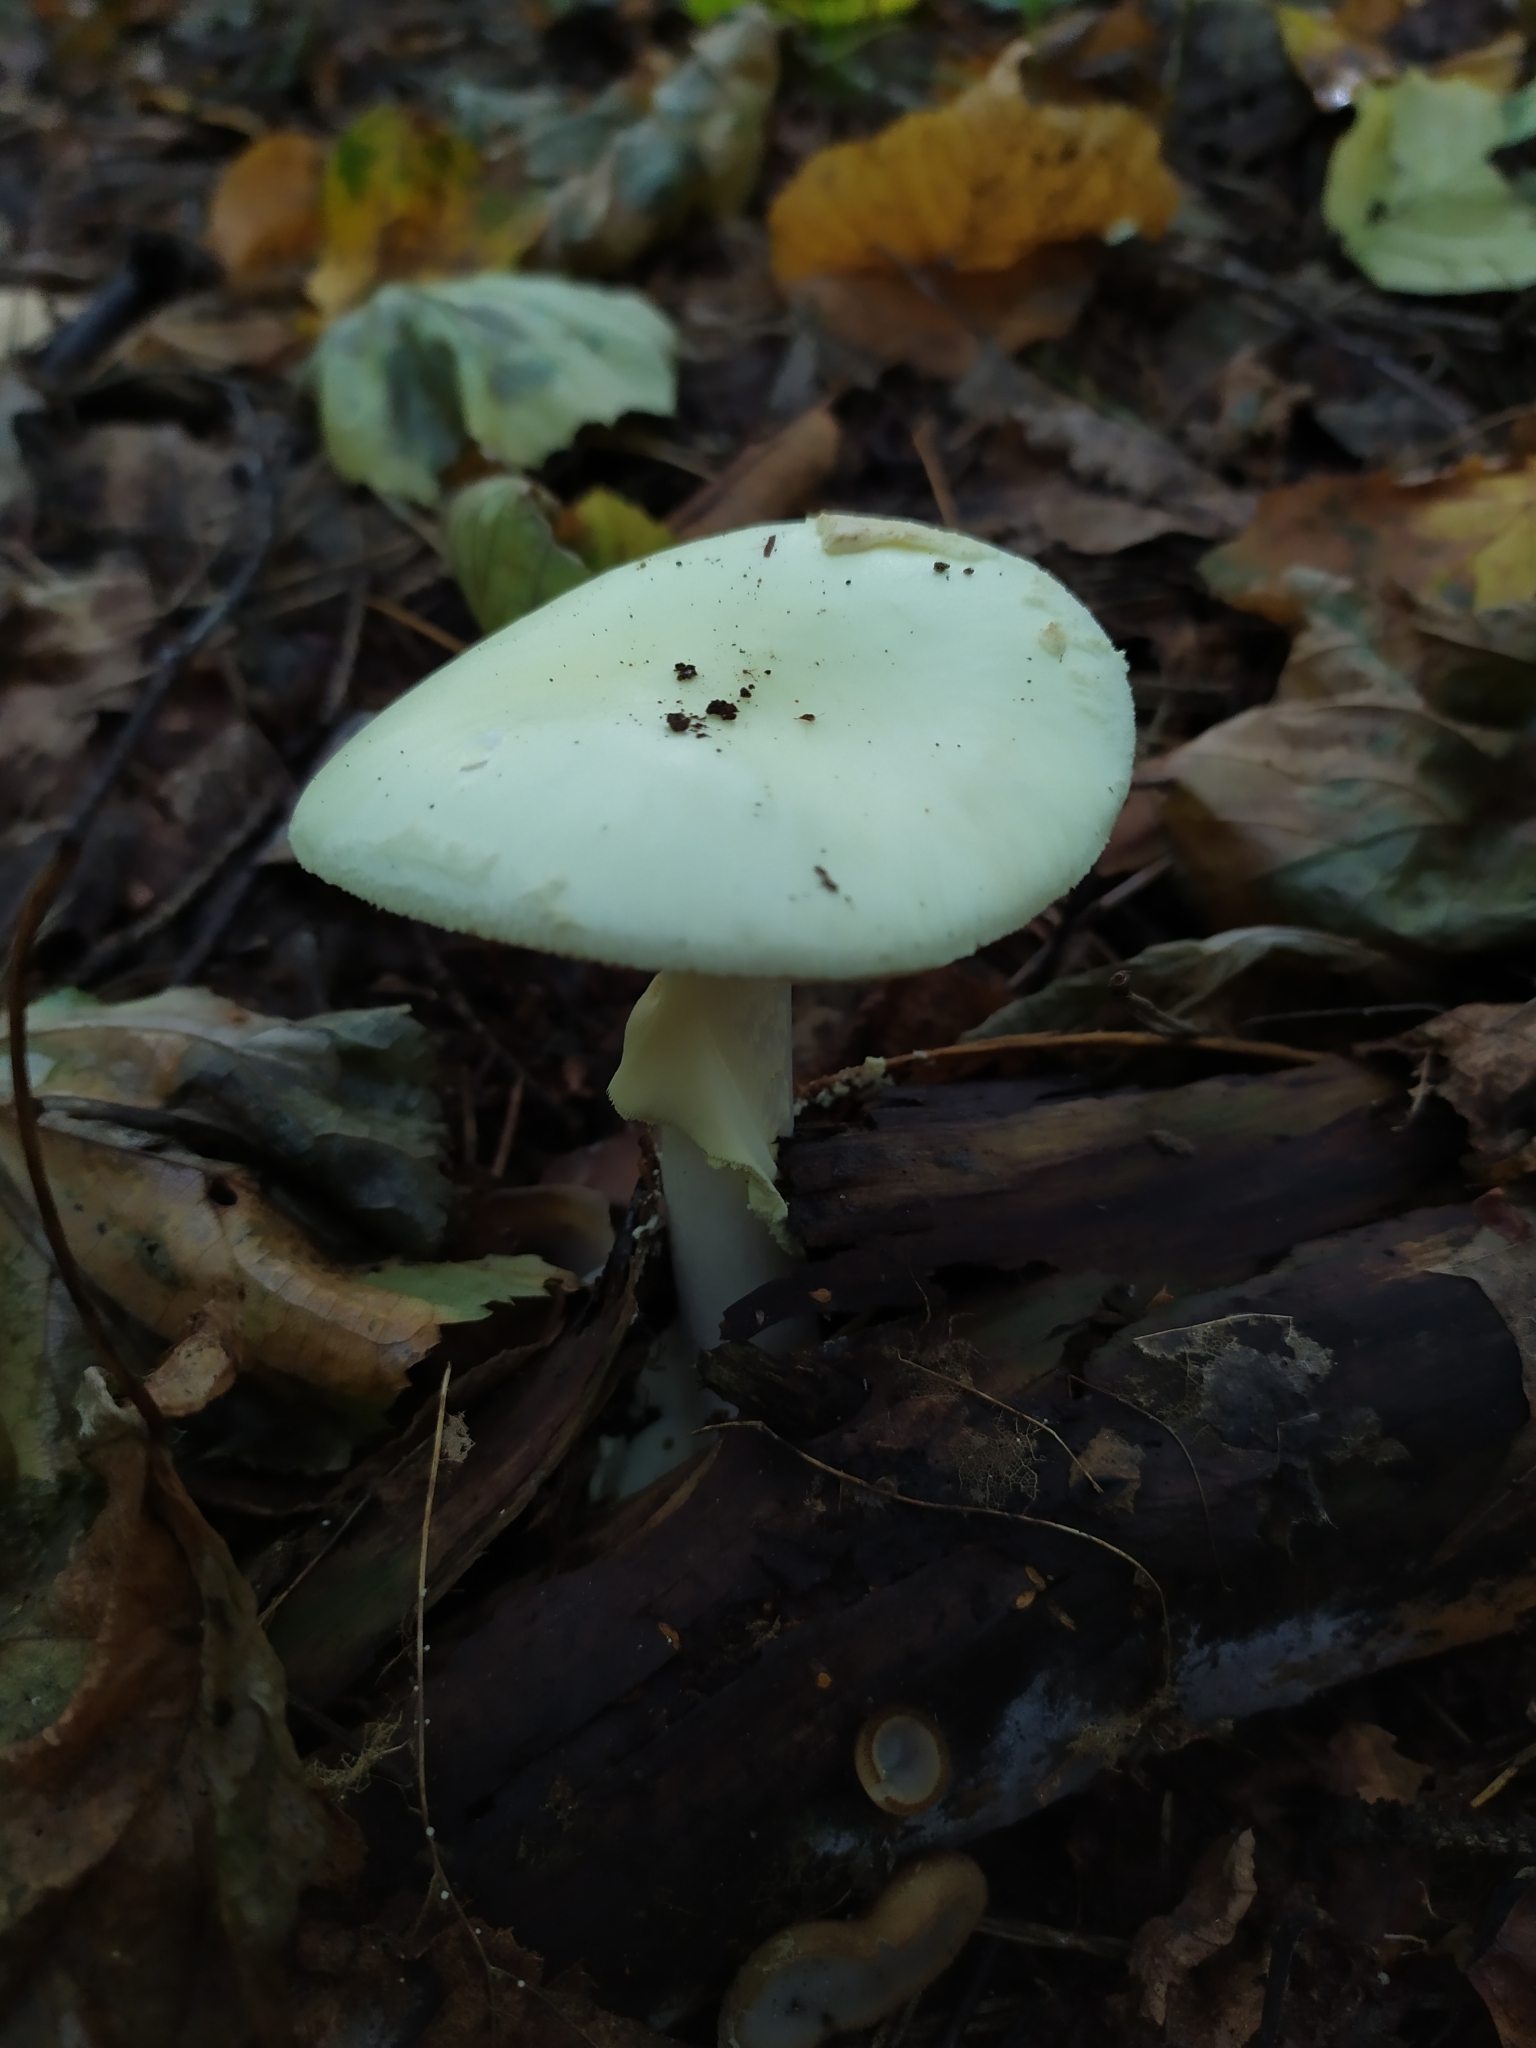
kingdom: Fungi
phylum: Basidiomycota
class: Agaricomycetes
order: Agaricales
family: Amanitaceae
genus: Amanita
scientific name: Amanita citrina
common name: False death-cap
